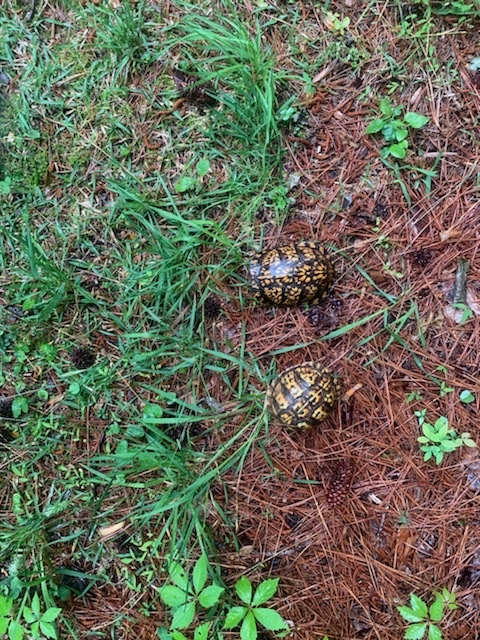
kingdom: Animalia
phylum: Chordata
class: Testudines
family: Emydidae
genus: Terrapene
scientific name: Terrapene carolina
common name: Common box turtle
